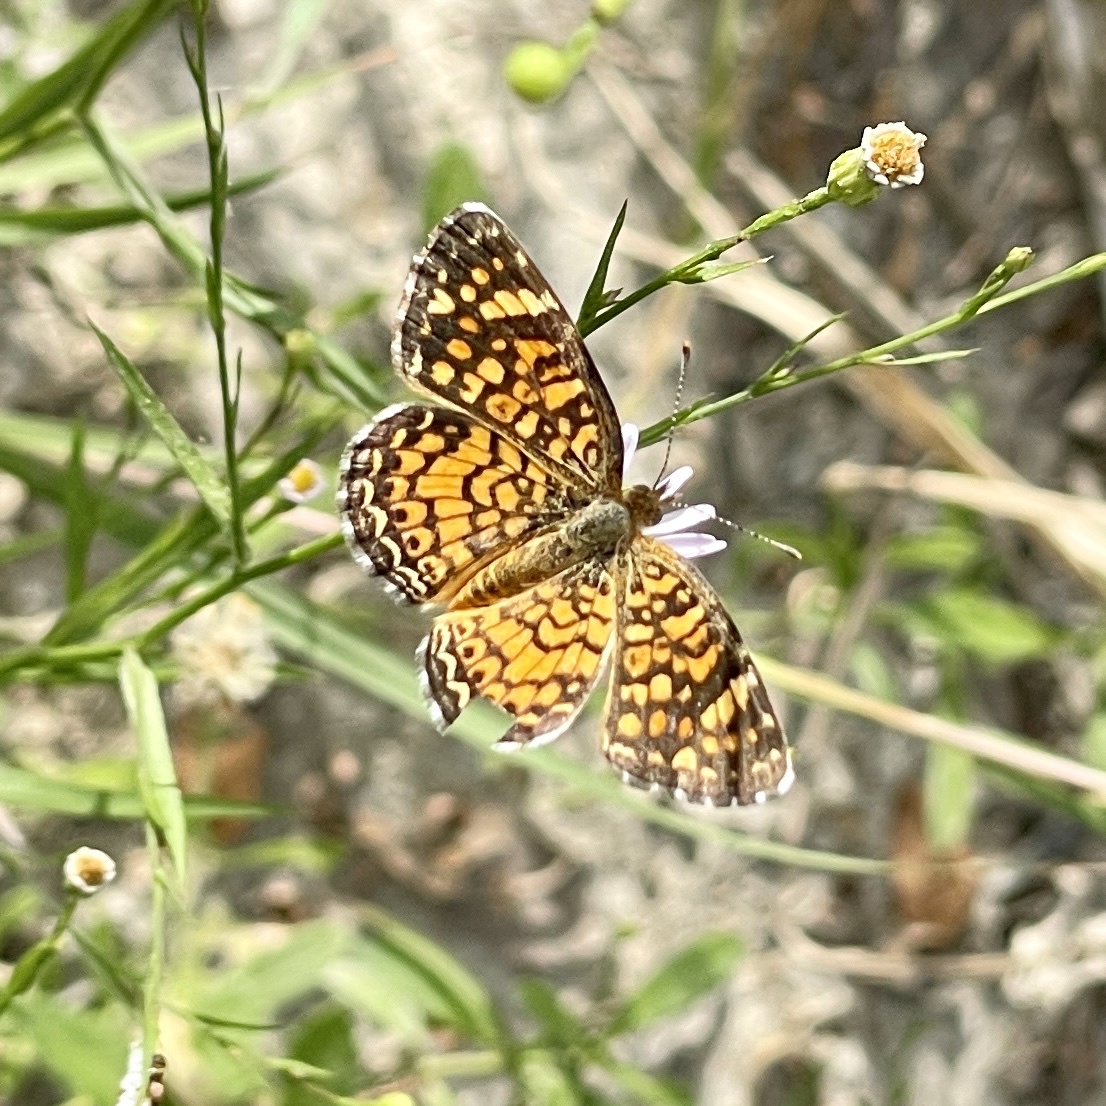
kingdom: Animalia
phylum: Arthropoda
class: Insecta
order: Lepidoptera
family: Nymphalidae
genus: Phyciodes
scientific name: Phyciodes vesta
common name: Vesta crescent
